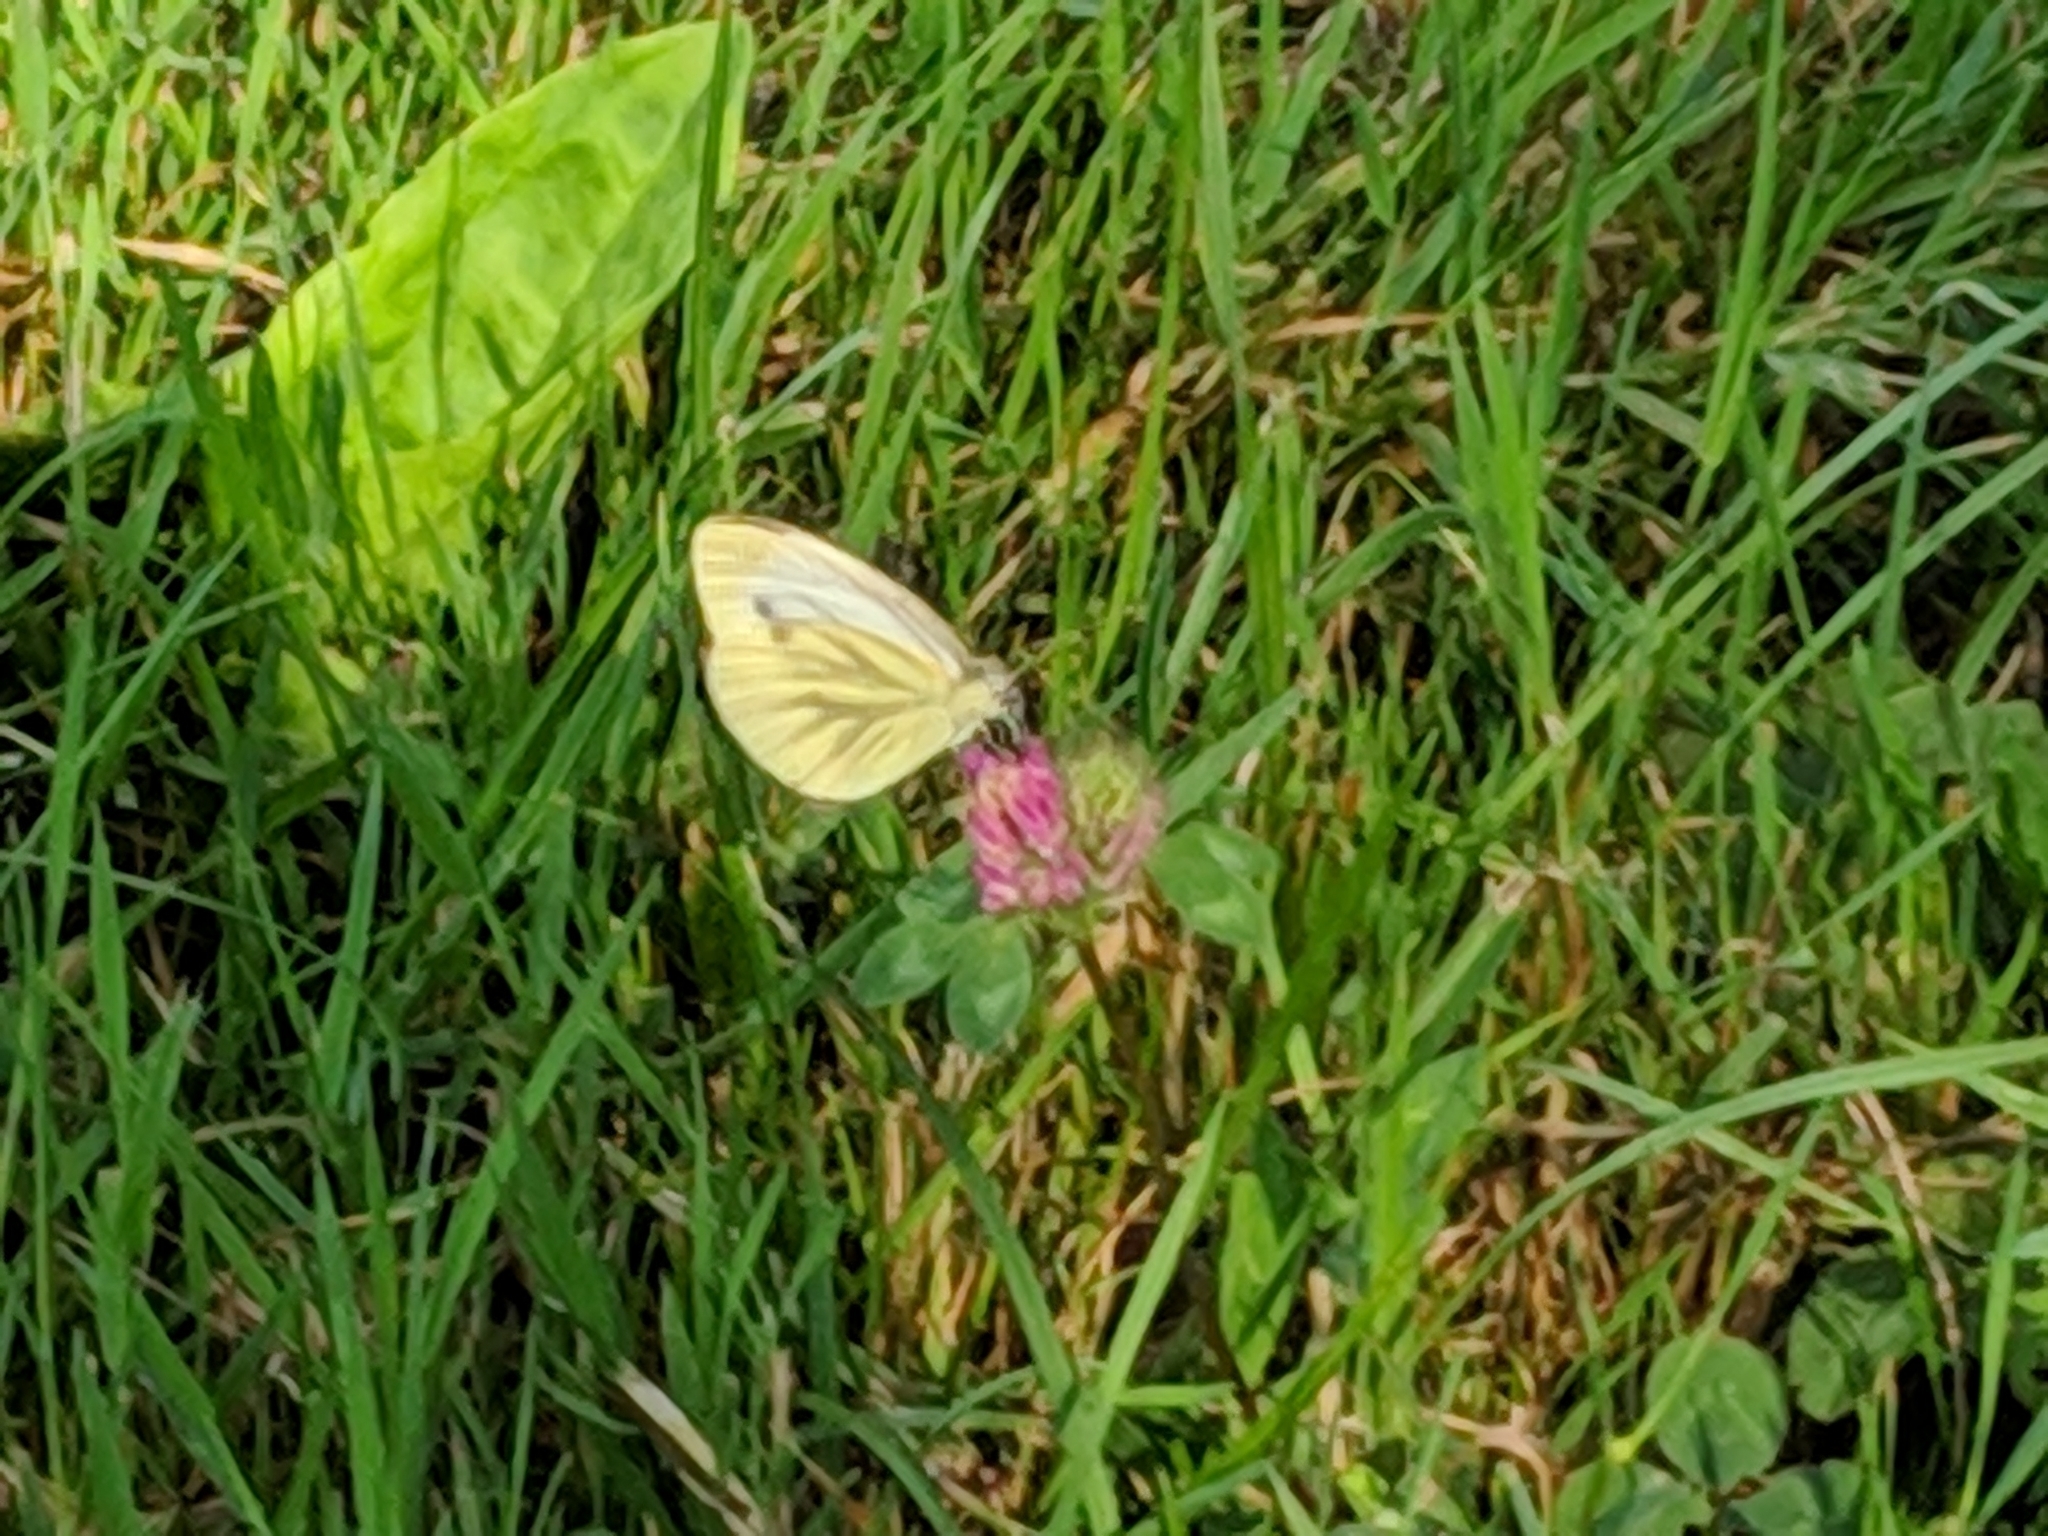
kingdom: Animalia
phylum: Arthropoda
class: Insecta
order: Lepidoptera
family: Pieridae
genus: Pieris
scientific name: Pieris napi
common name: Green-veined white
